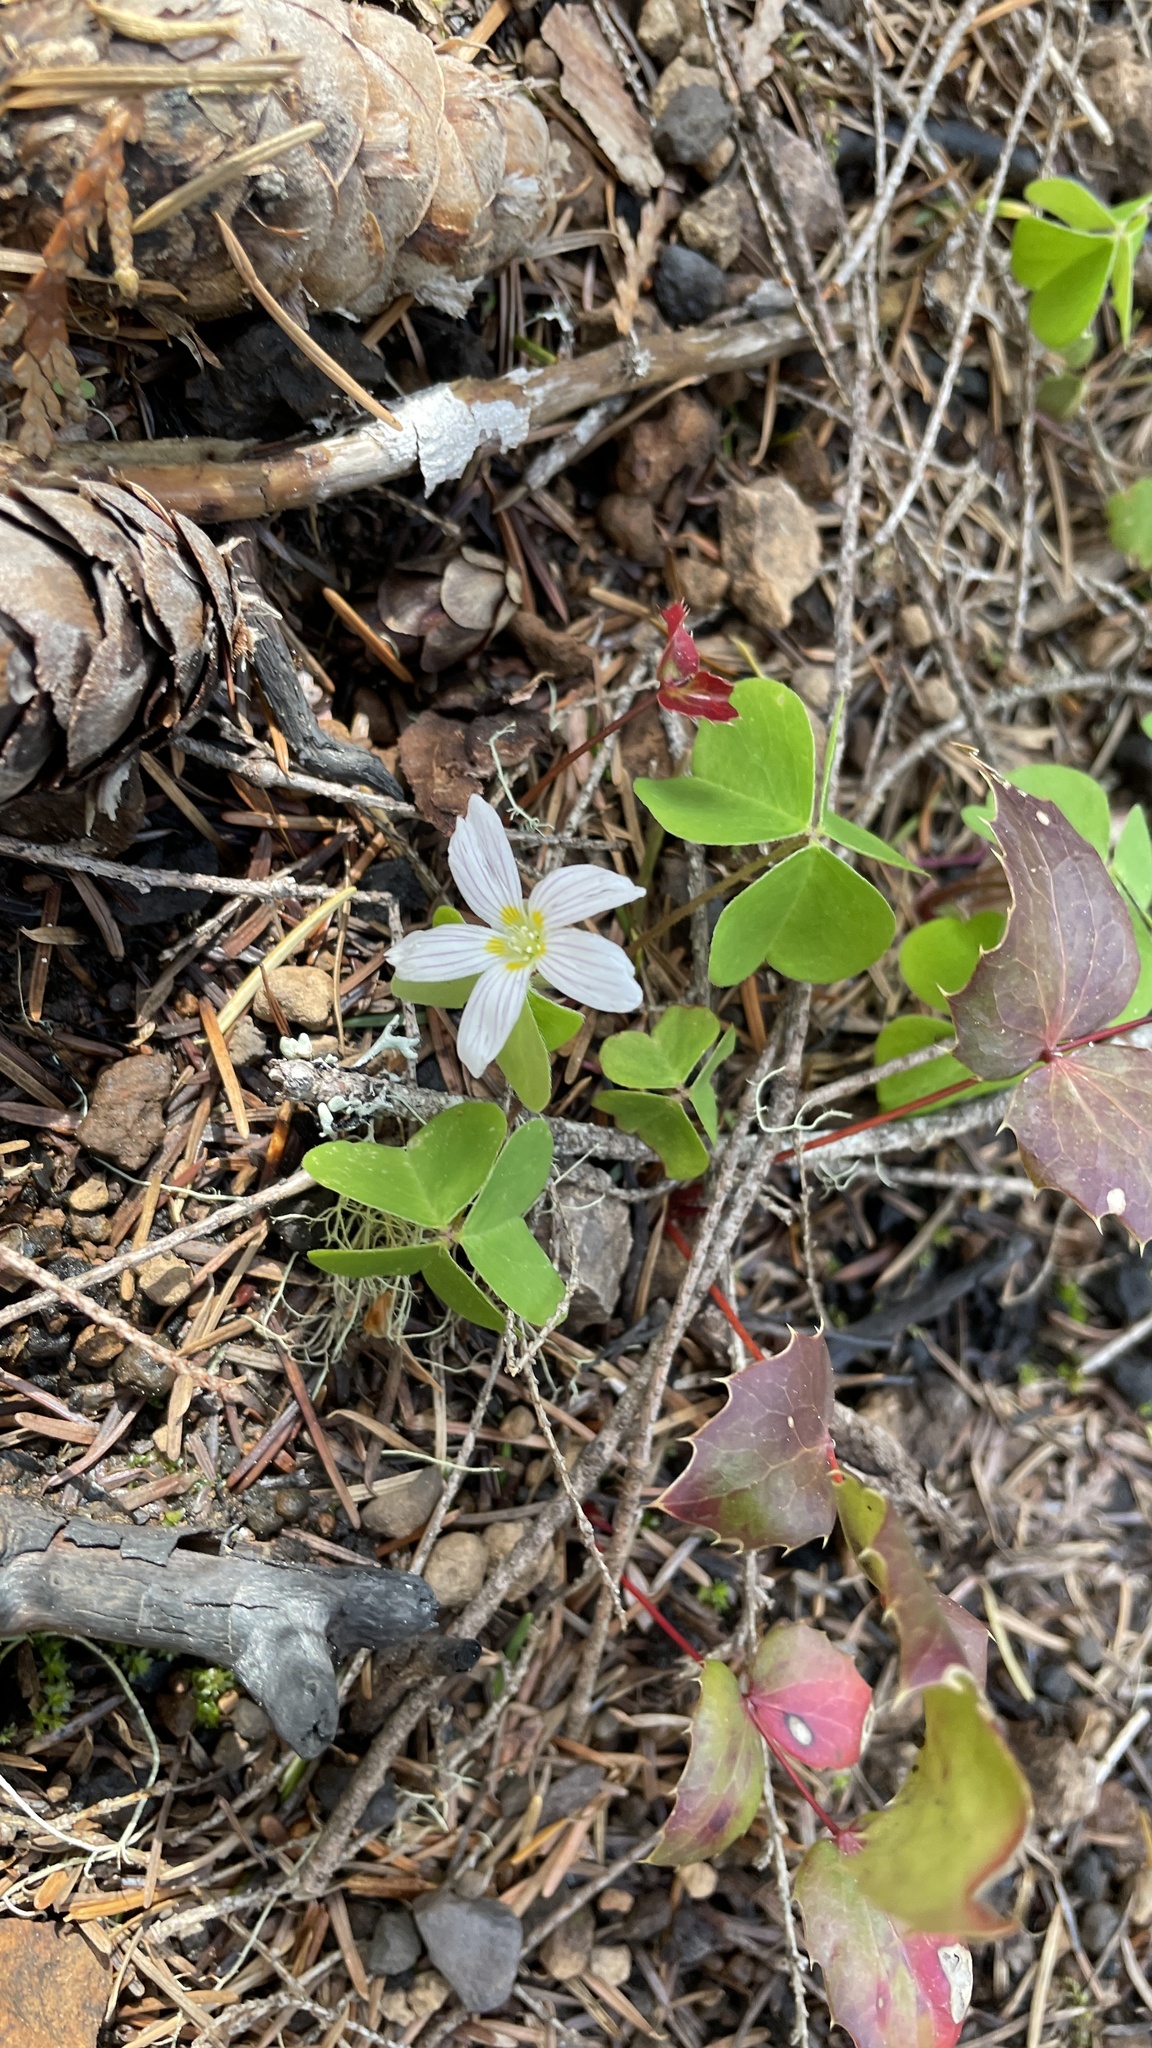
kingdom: Plantae
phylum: Tracheophyta
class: Magnoliopsida
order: Oxalidales
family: Oxalidaceae
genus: Oxalis
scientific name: Oxalis oregana
